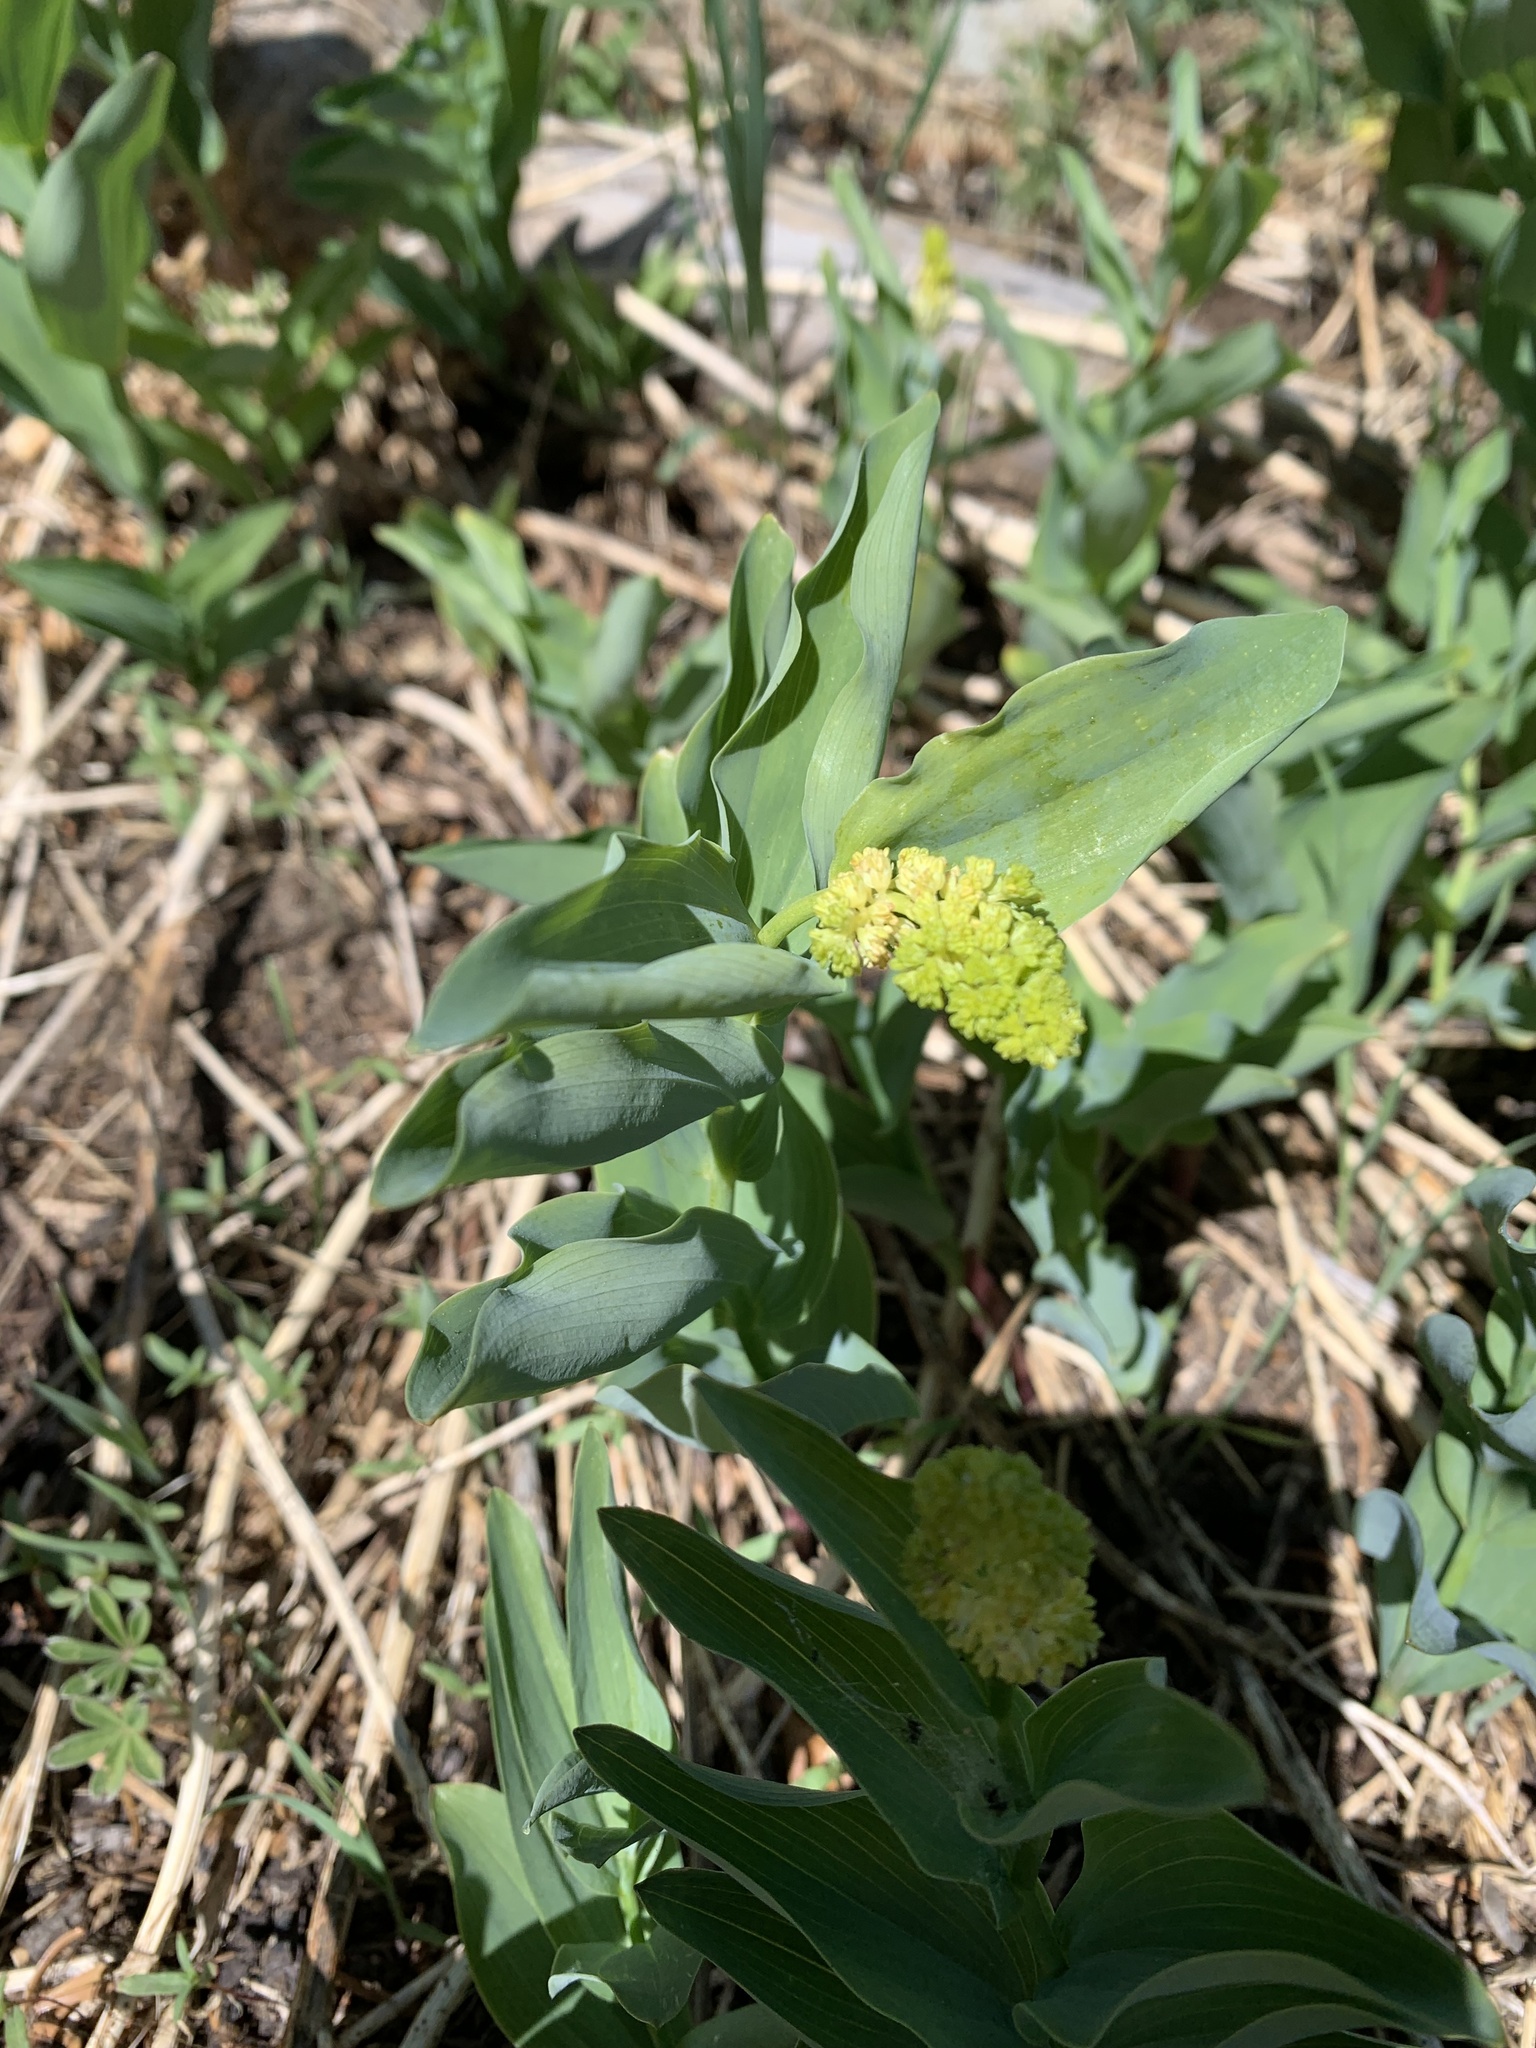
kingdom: Plantae
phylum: Tracheophyta
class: Liliopsida
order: Asparagales
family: Asparagaceae
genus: Maianthemum
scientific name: Maianthemum racemosum
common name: False spikenard
